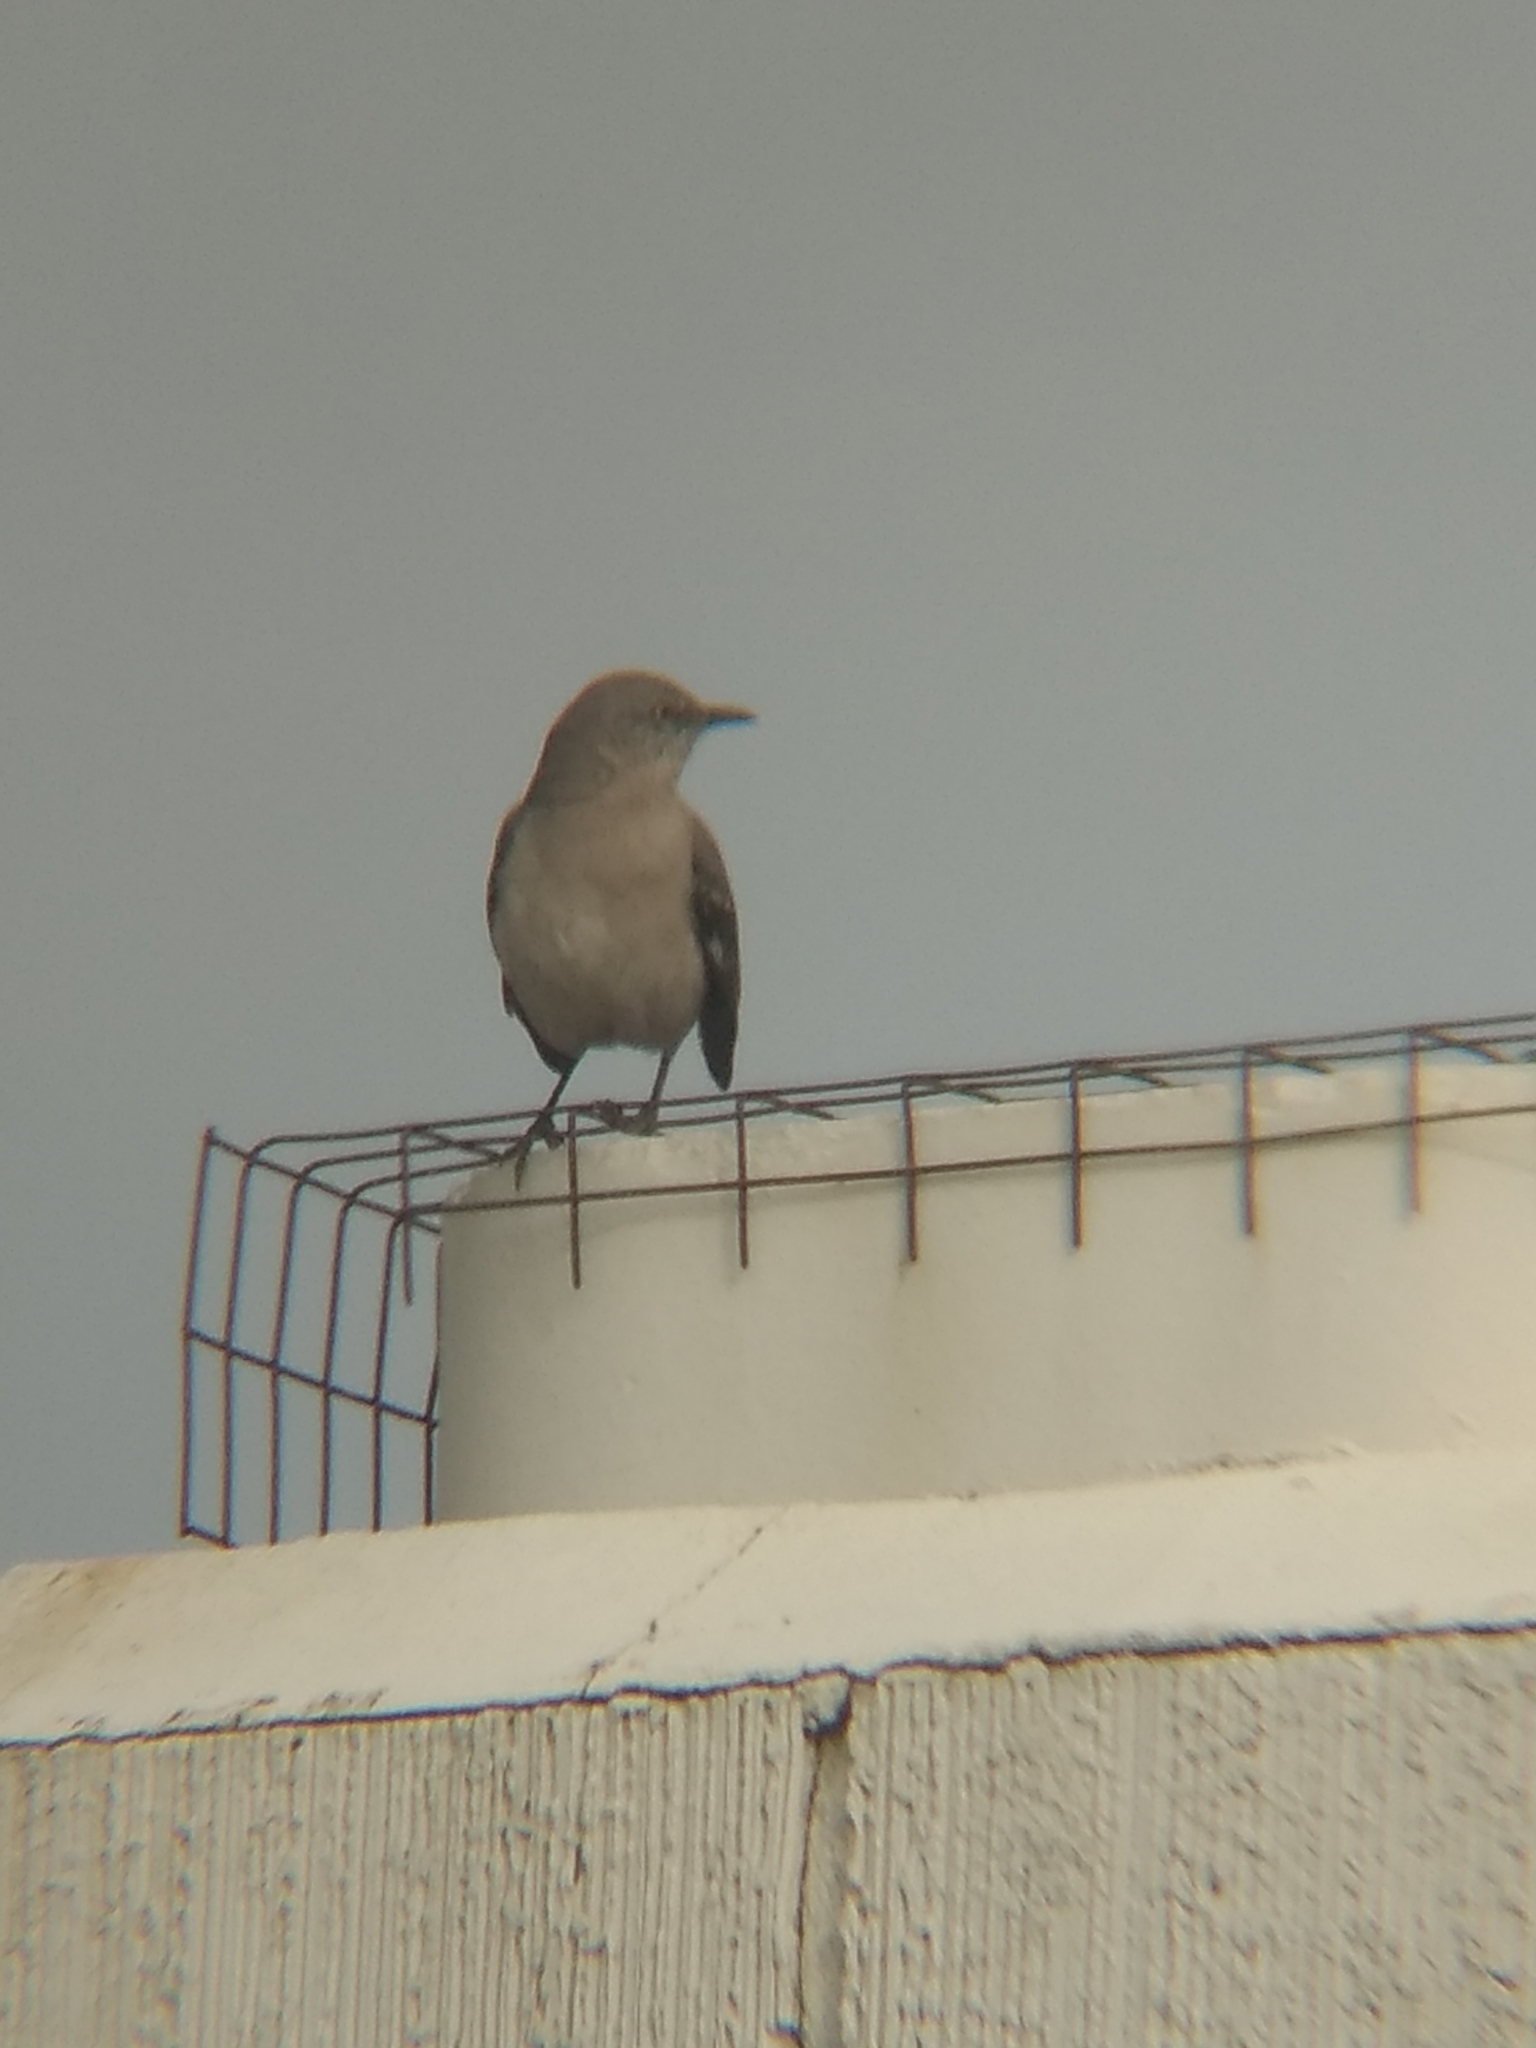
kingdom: Animalia
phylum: Chordata
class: Aves
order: Passeriformes
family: Mimidae
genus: Mimus
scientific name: Mimus polyglottos
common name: Northern mockingbird
